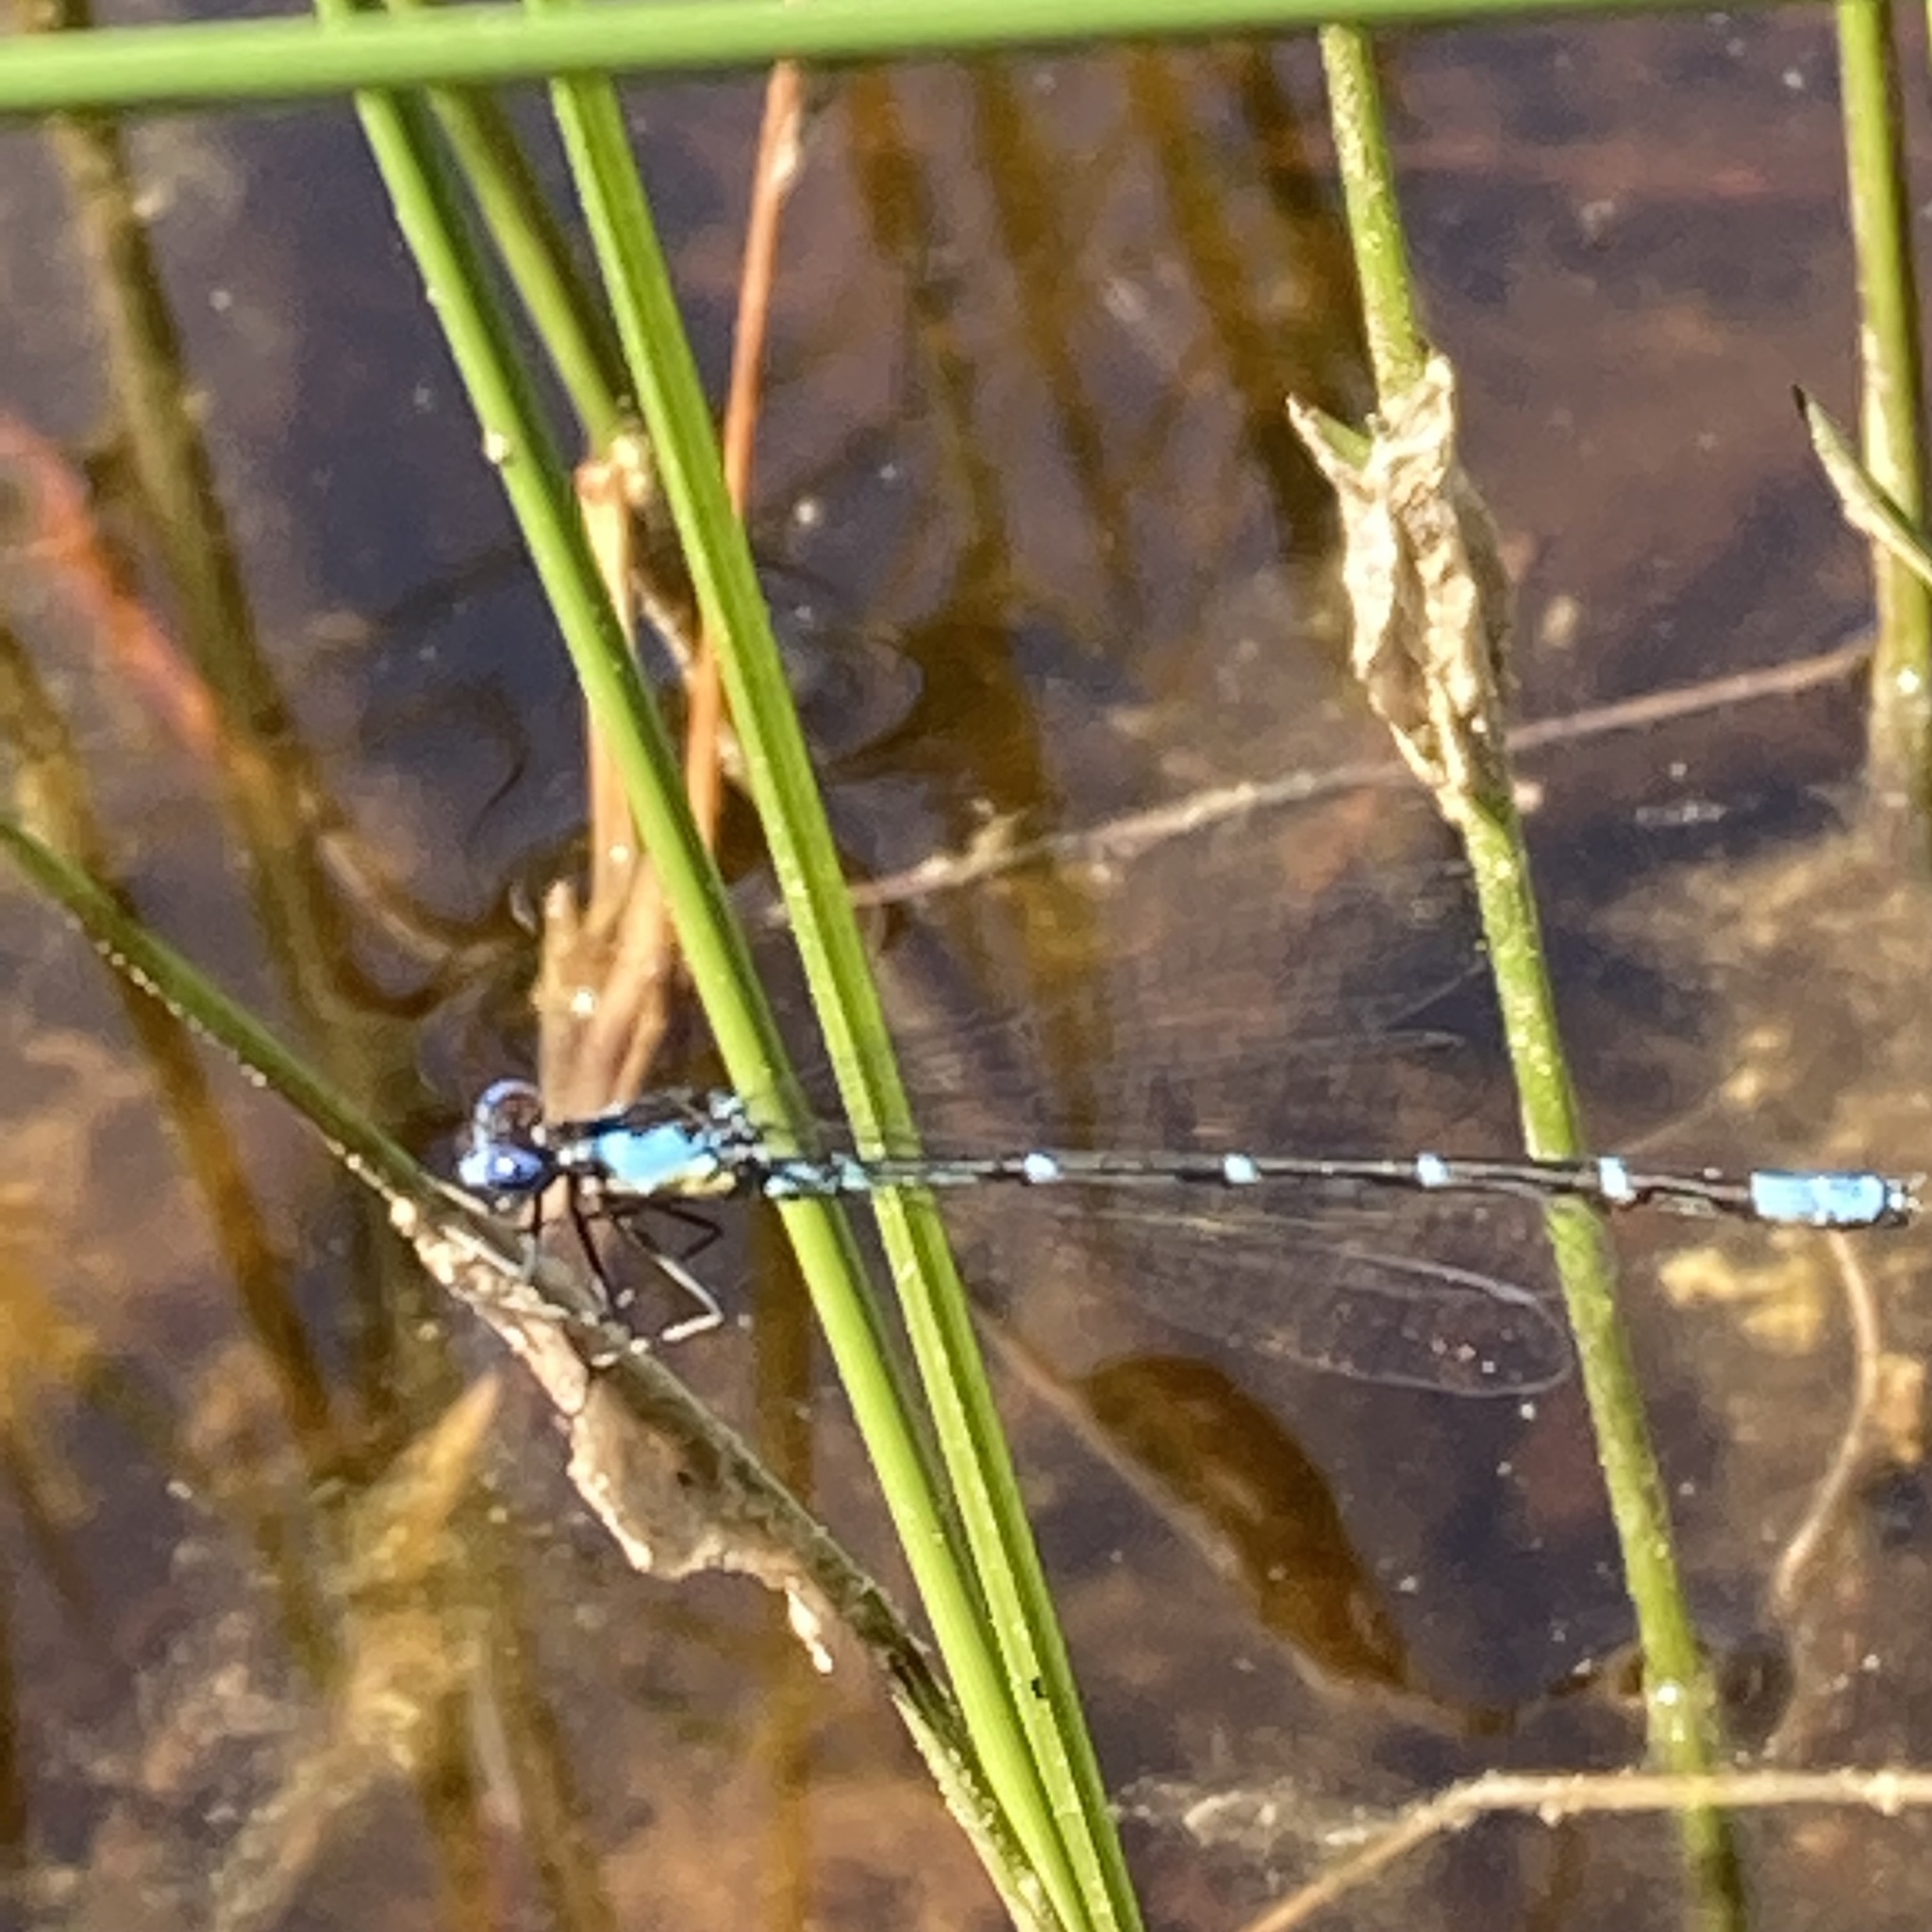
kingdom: Animalia
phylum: Arthropoda
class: Insecta
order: Odonata
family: Coenagrionidae
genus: Chromagrion
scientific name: Chromagrion conditum
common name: Aurora damsel
